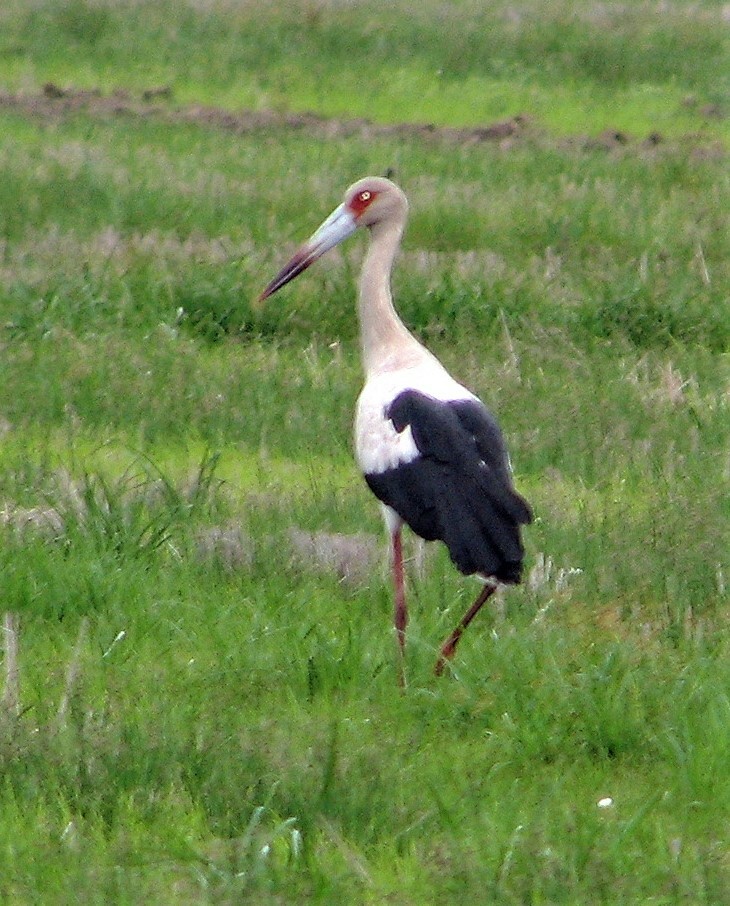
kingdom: Animalia
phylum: Chordata
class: Aves
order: Ciconiiformes
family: Ciconiidae
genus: Ciconia
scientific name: Ciconia maguari
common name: Maguari stork
